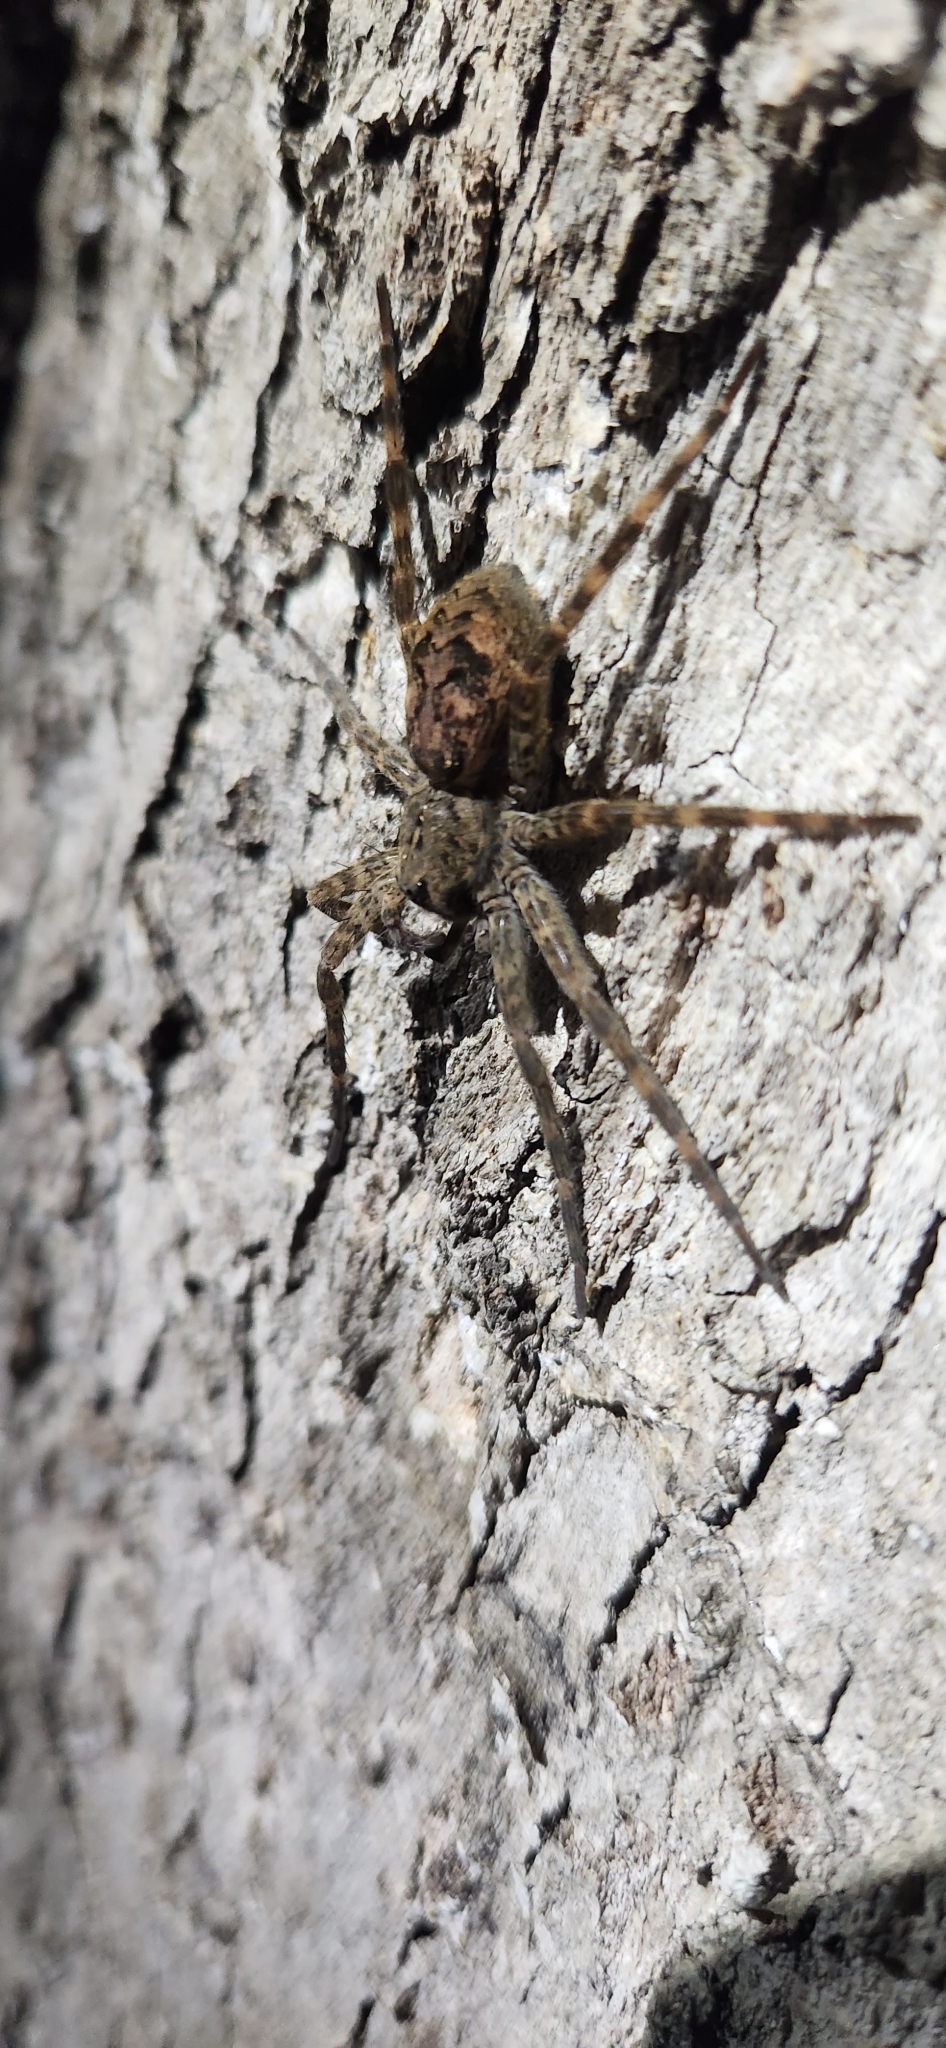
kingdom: Animalia
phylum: Arthropoda
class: Arachnida
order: Araneae
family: Pisauridae
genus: Dolomedes
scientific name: Dolomedes tenebrosus
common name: Dark fishing spider
